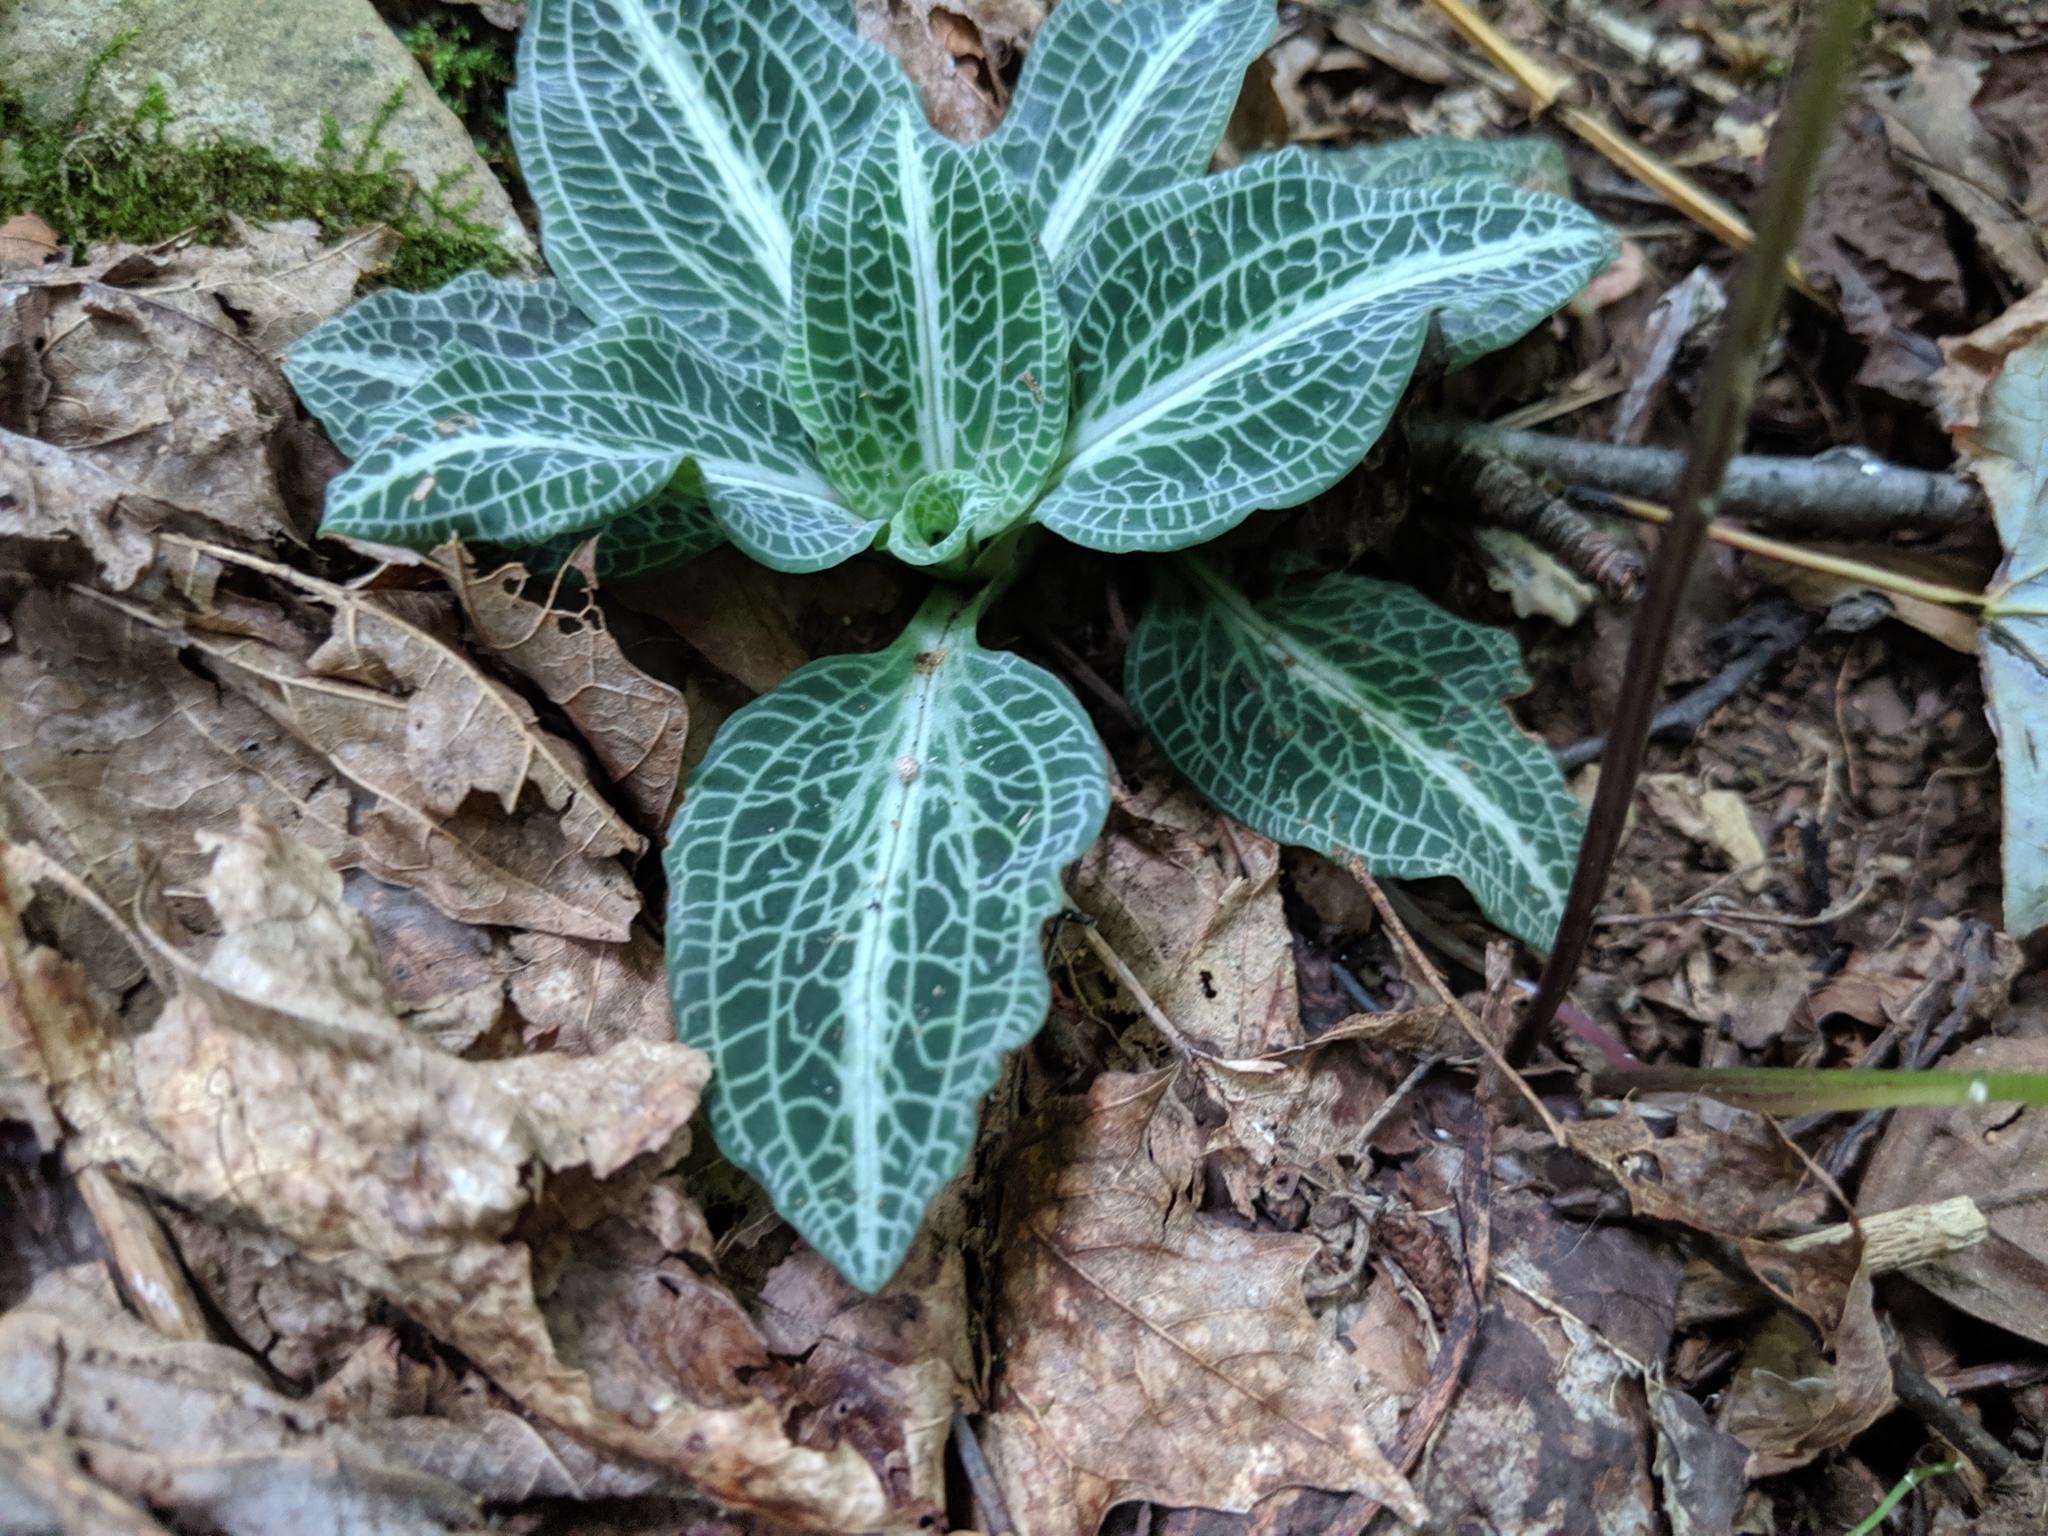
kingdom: Plantae
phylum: Tracheophyta
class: Liliopsida
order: Asparagales
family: Orchidaceae
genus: Goodyera
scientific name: Goodyera pubescens
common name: Downy rattlesnake-plantain
